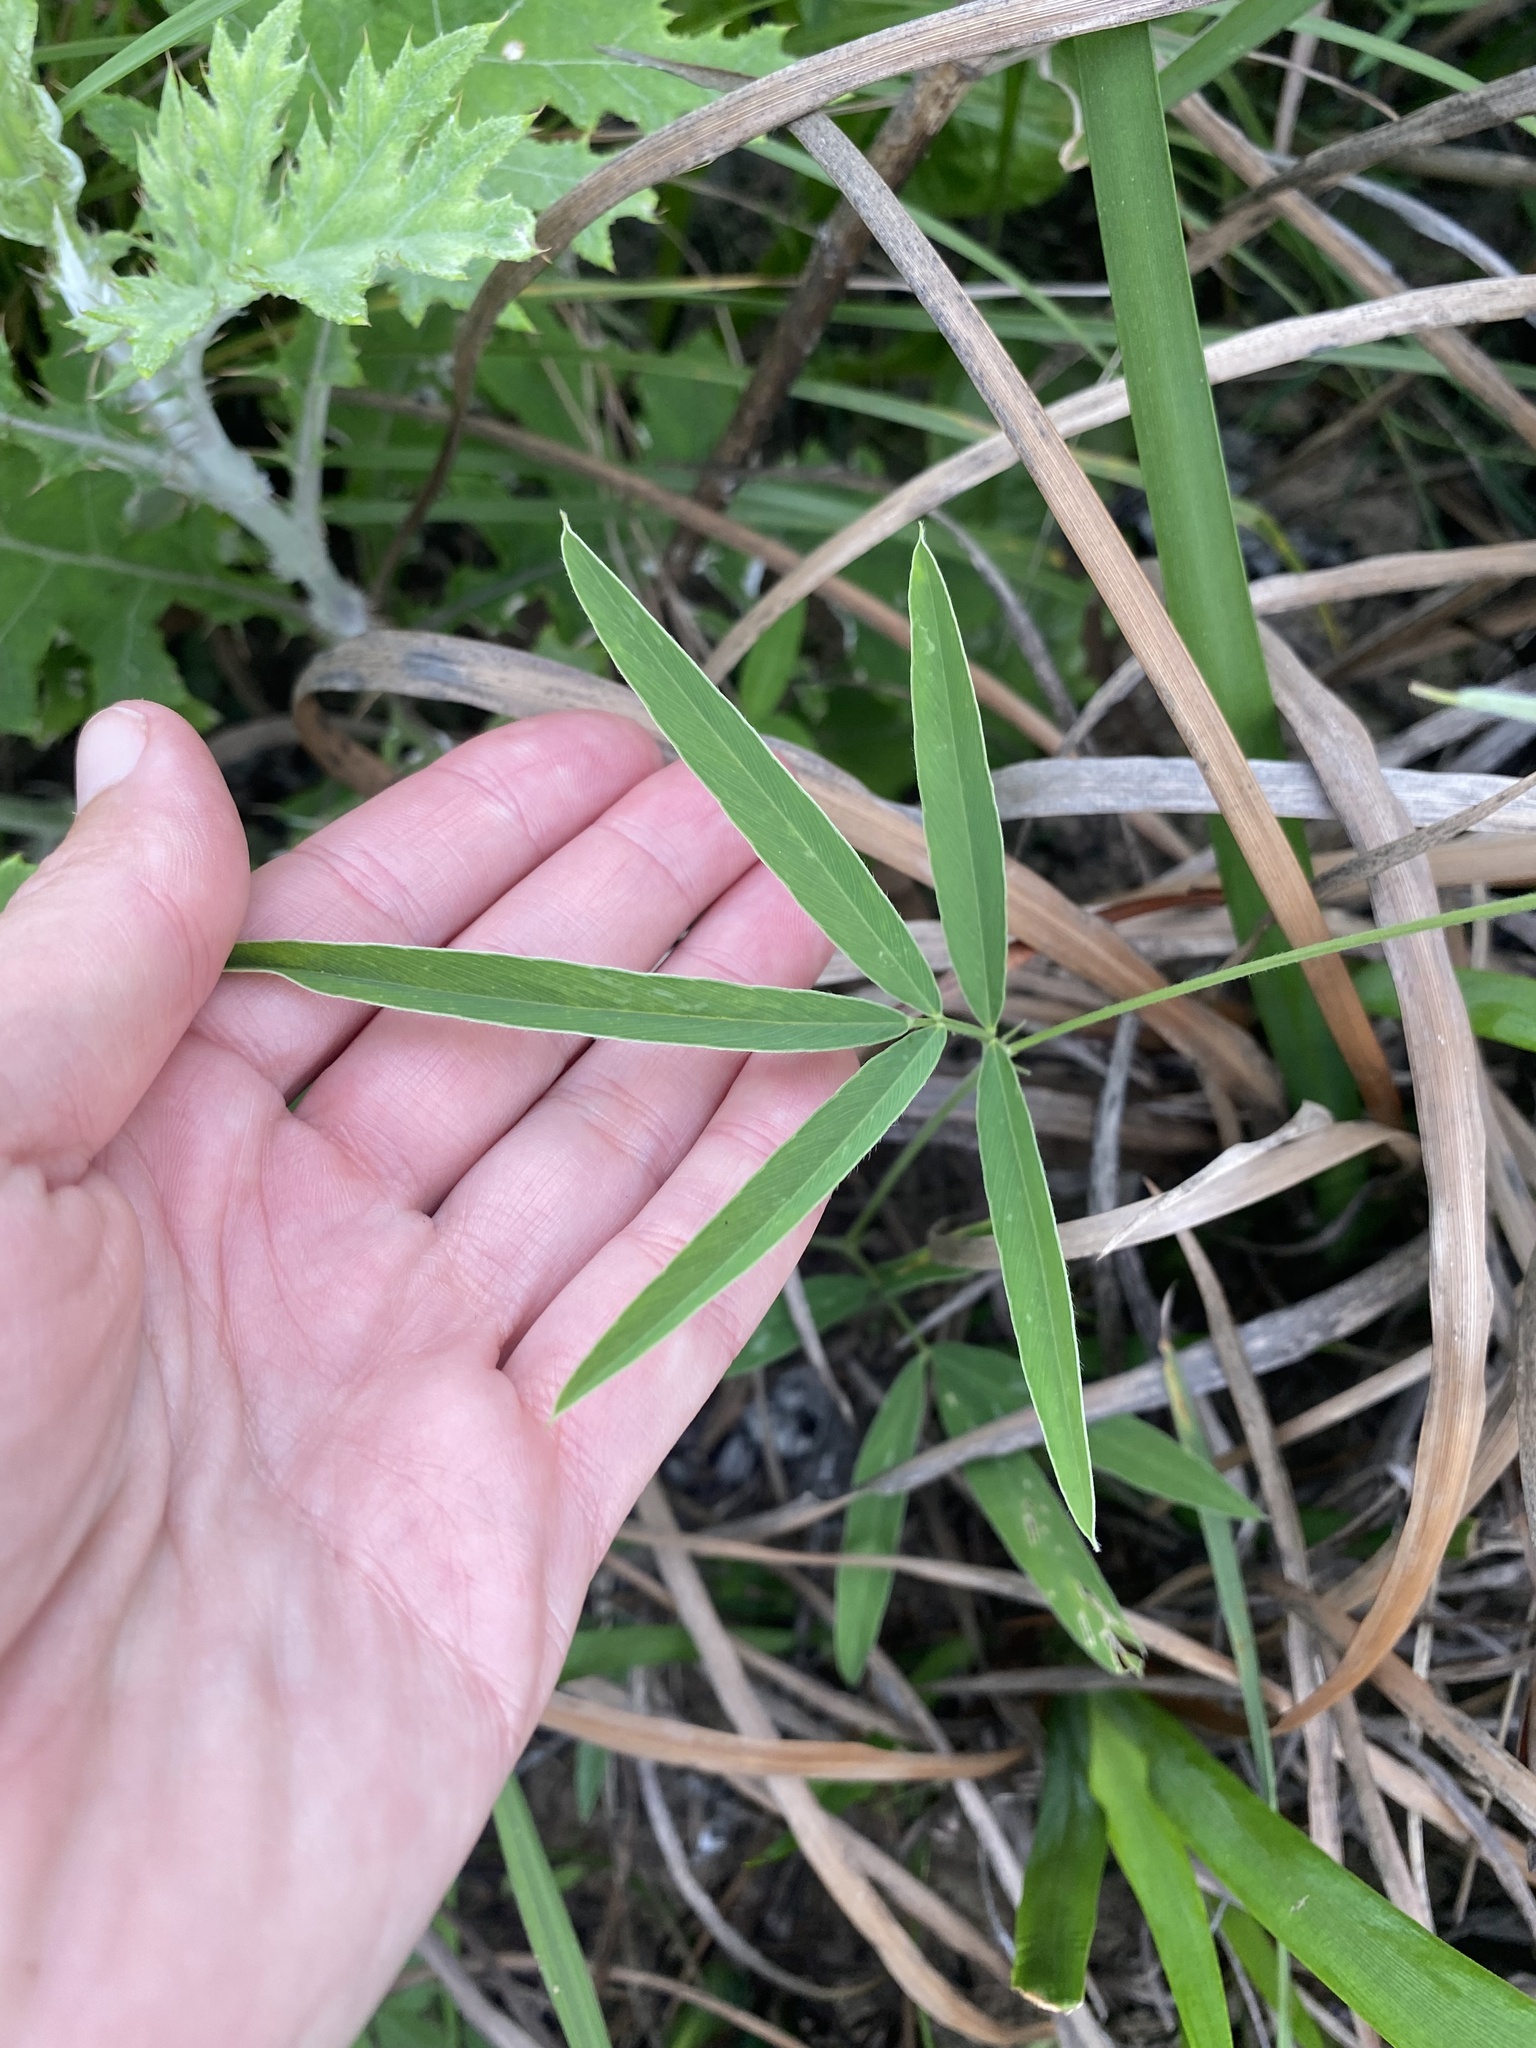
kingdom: Plantae
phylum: Tracheophyta
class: Magnoliopsida
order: Fabales
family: Fabaceae
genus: Tephrosia
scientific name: Tephrosia elongata
